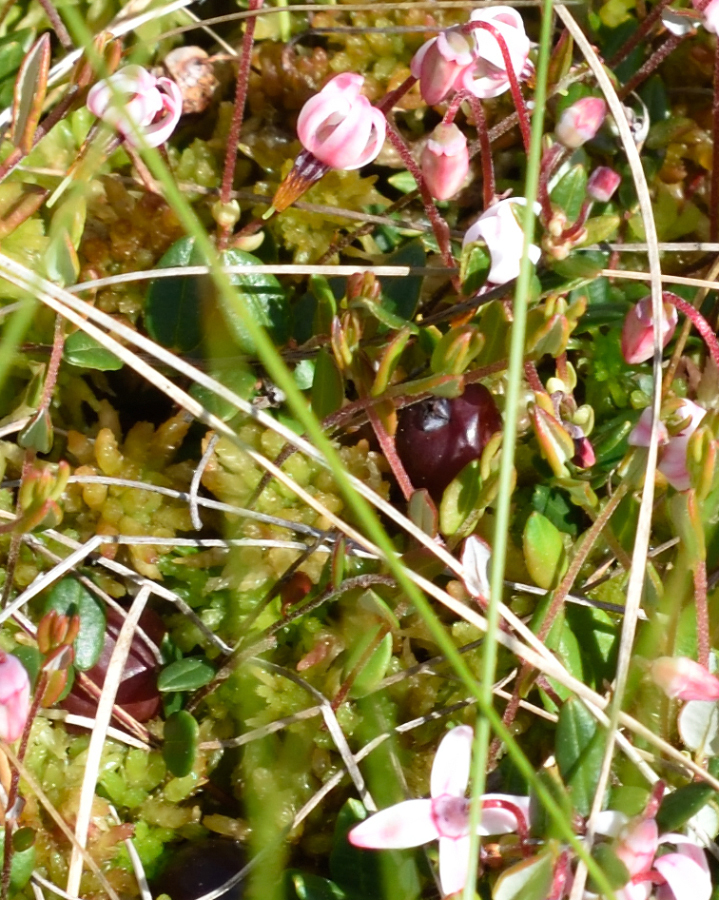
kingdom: Plantae
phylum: Tracheophyta
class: Magnoliopsida
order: Ericales
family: Ericaceae
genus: Vaccinium
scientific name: Vaccinium oxycoccos
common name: Cranberry
